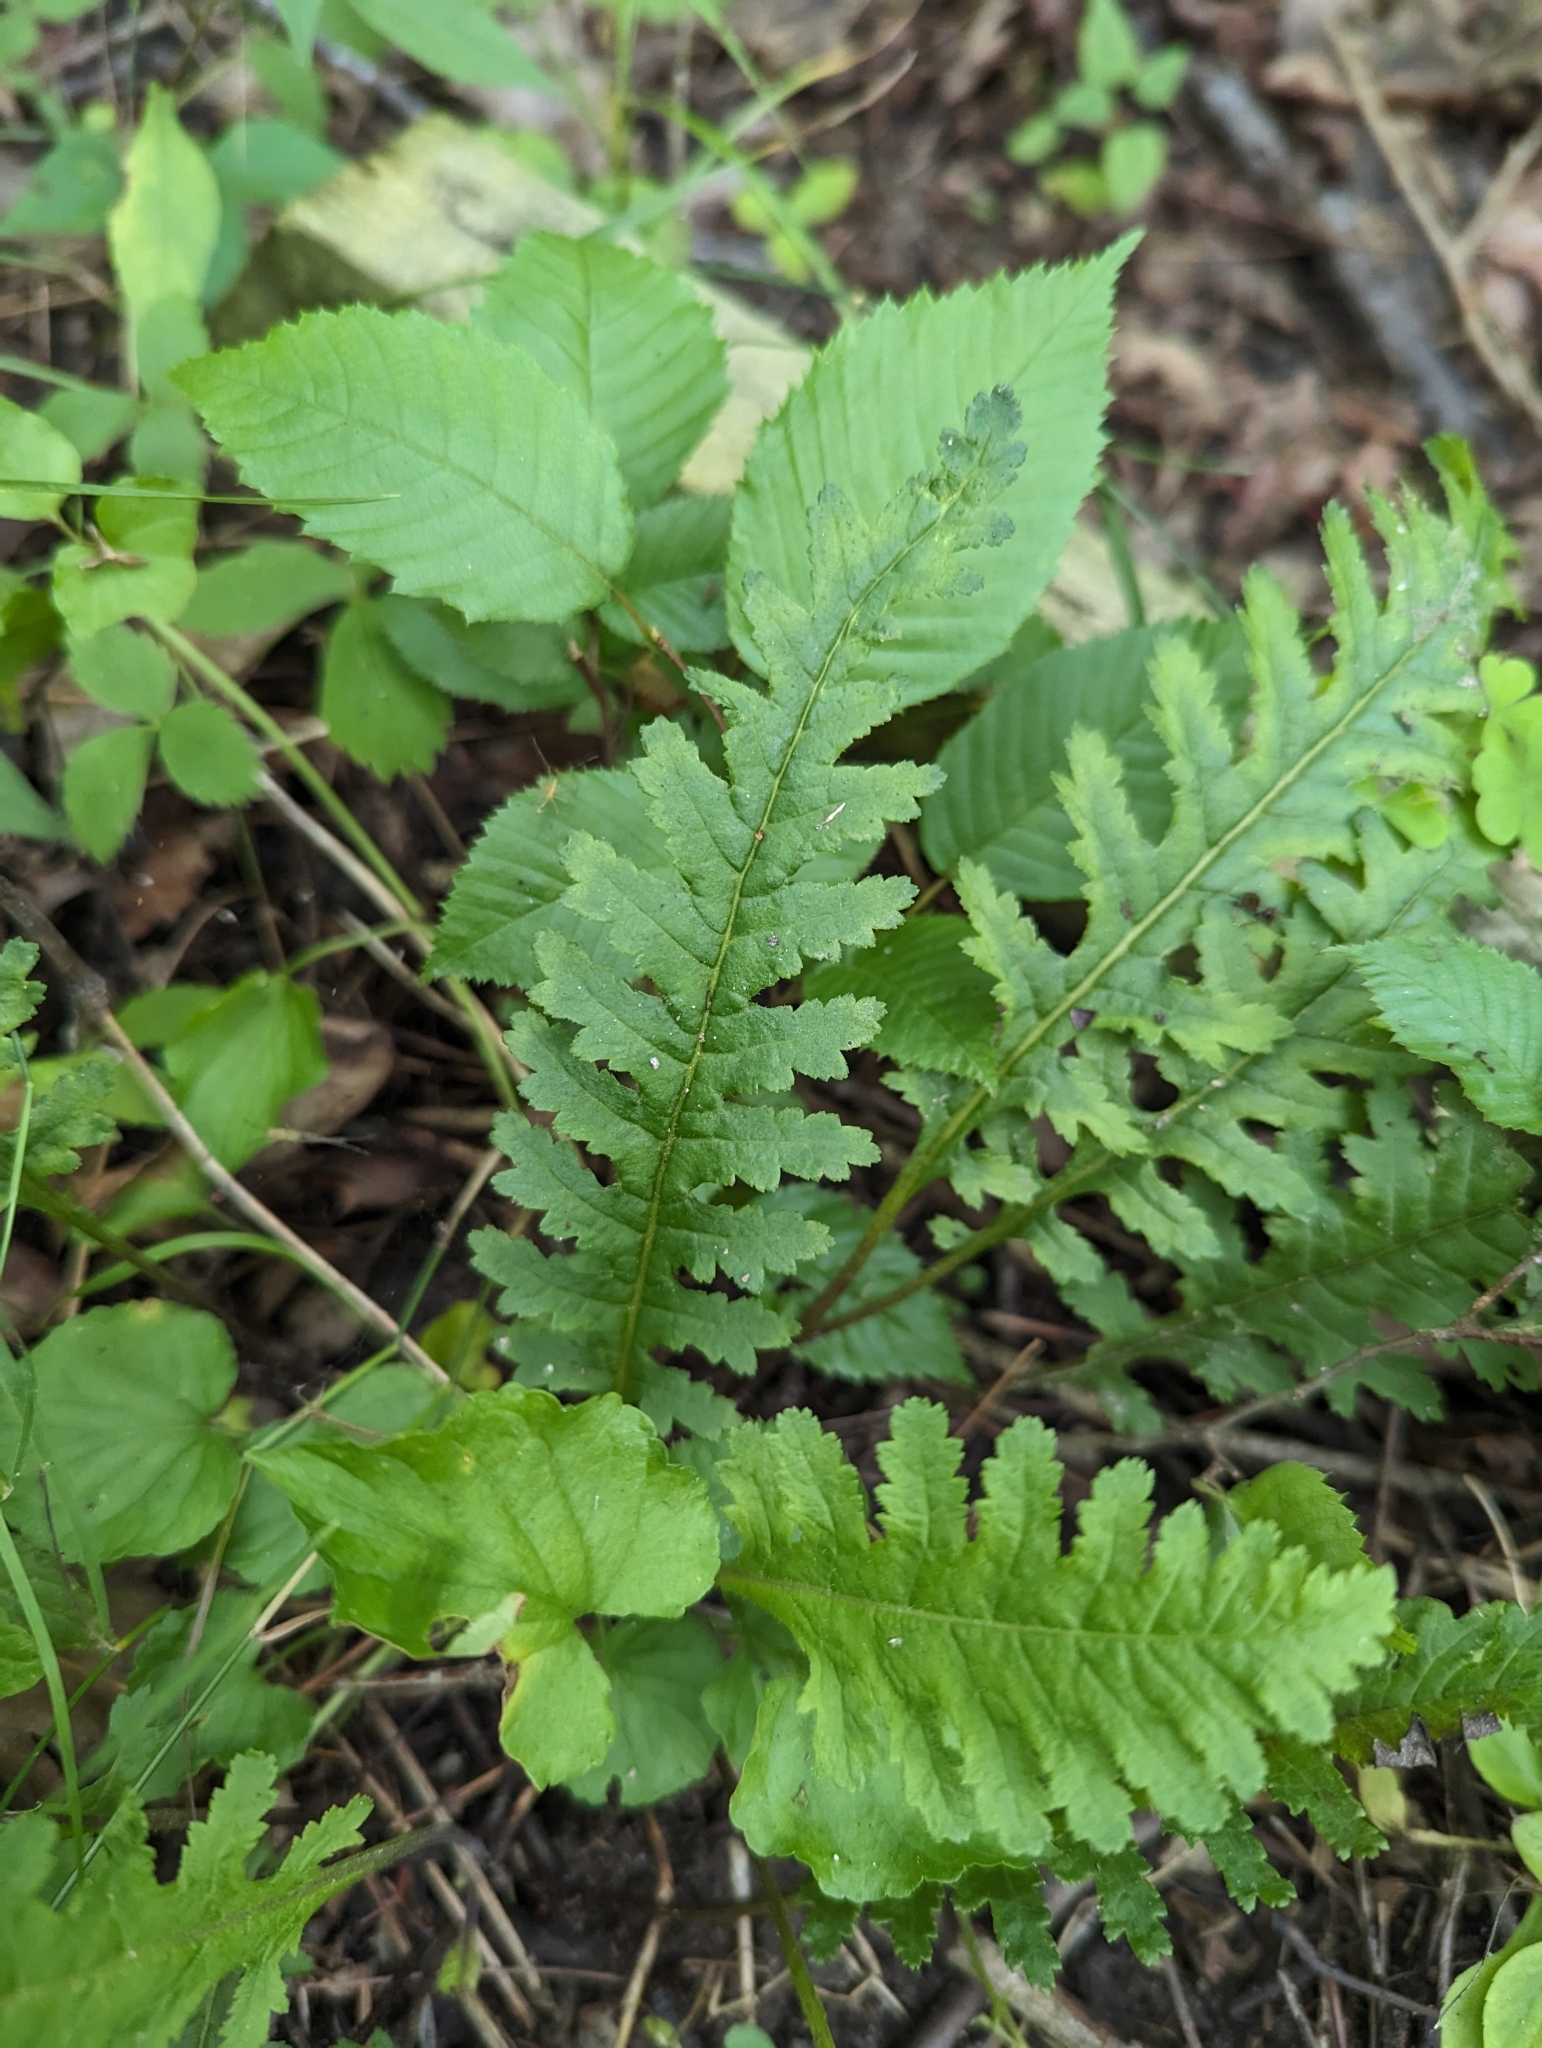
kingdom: Plantae
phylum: Tracheophyta
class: Magnoliopsida
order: Lamiales
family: Orobanchaceae
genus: Pedicularis
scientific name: Pedicularis canadensis
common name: Early lousewort
